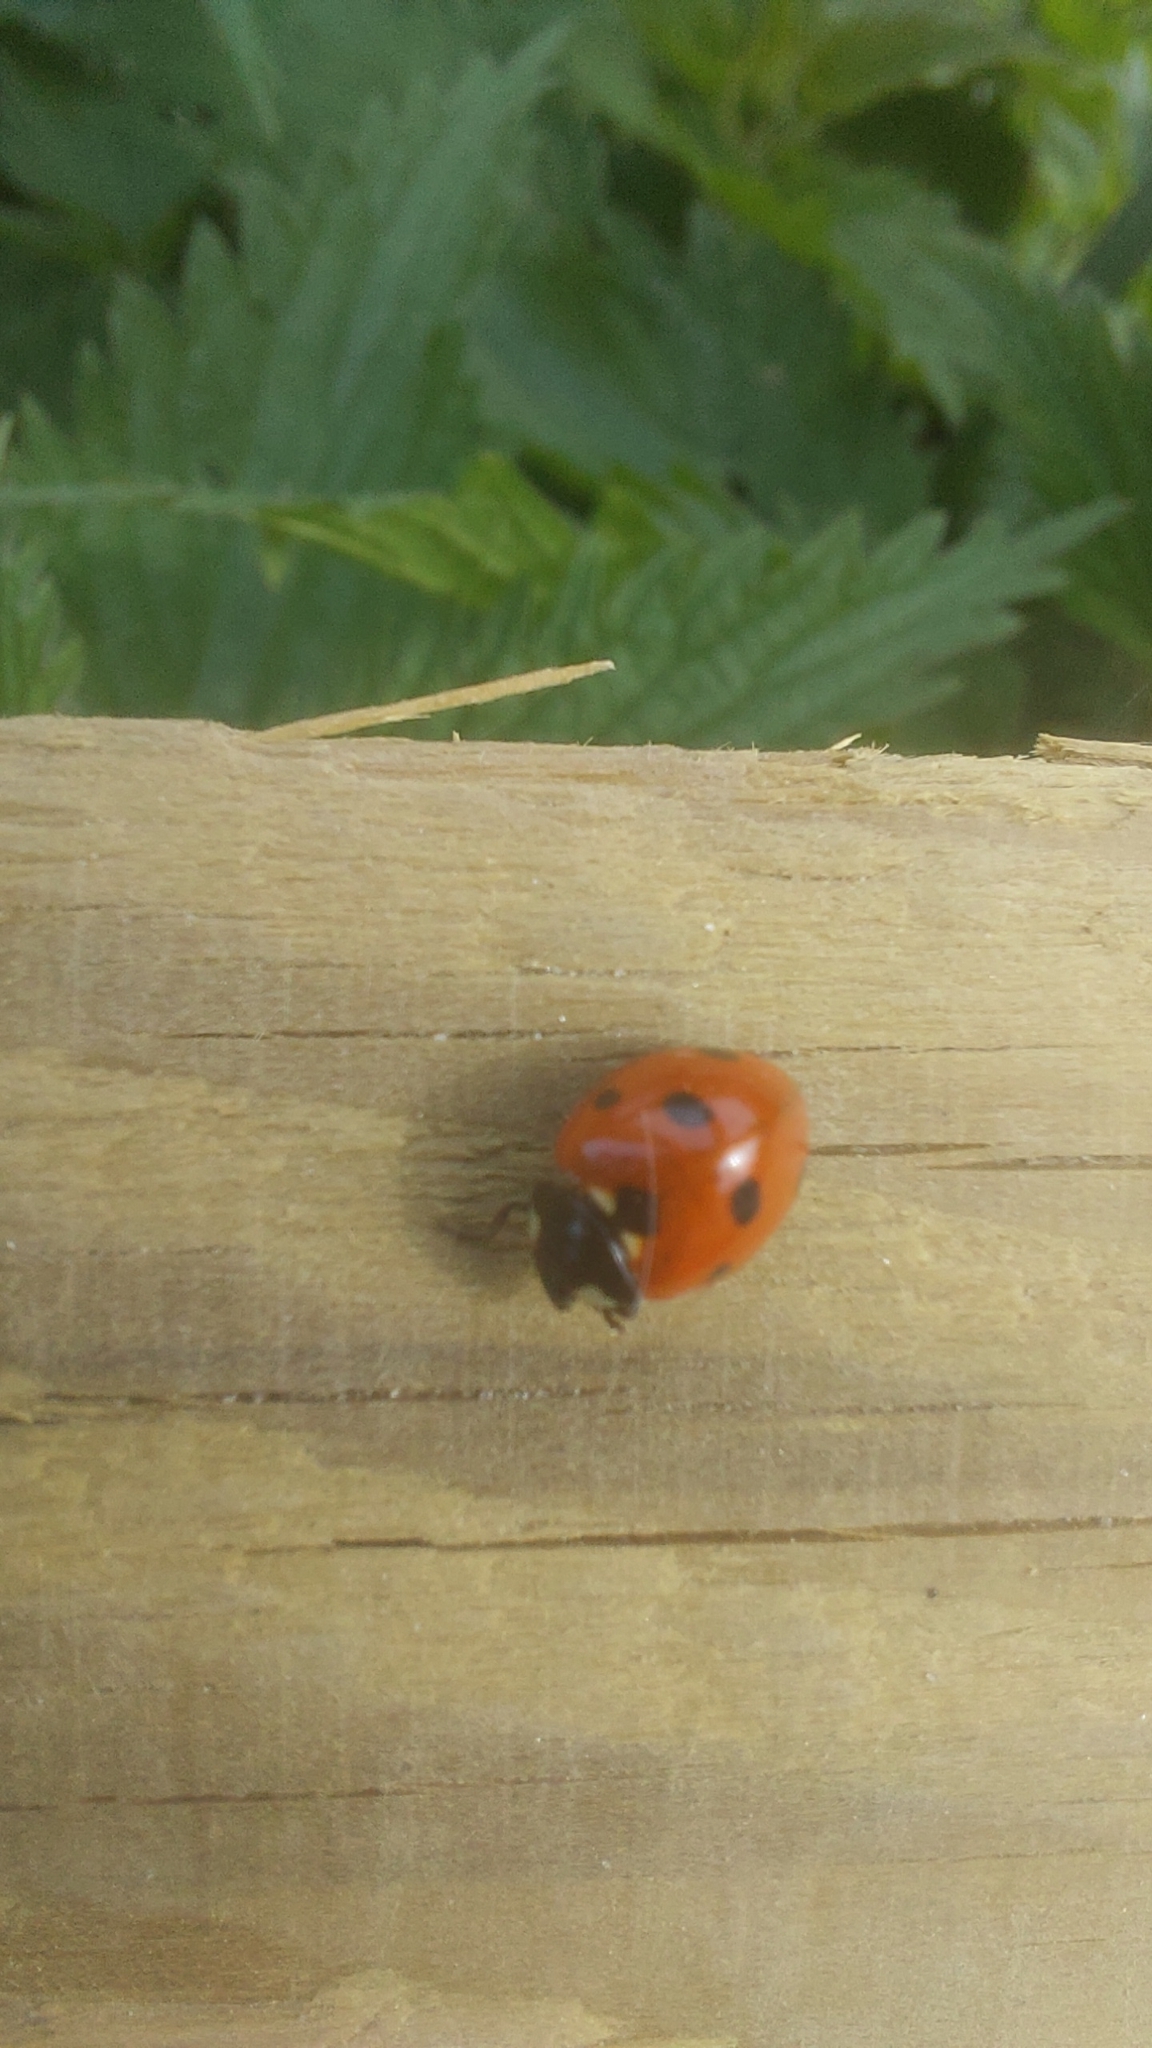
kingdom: Animalia
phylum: Arthropoda
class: Insecta
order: Coleoptera
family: Coccinellidae
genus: Coccinella
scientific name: Coccinella septempunctata
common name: Sevenspotted lady beetle
